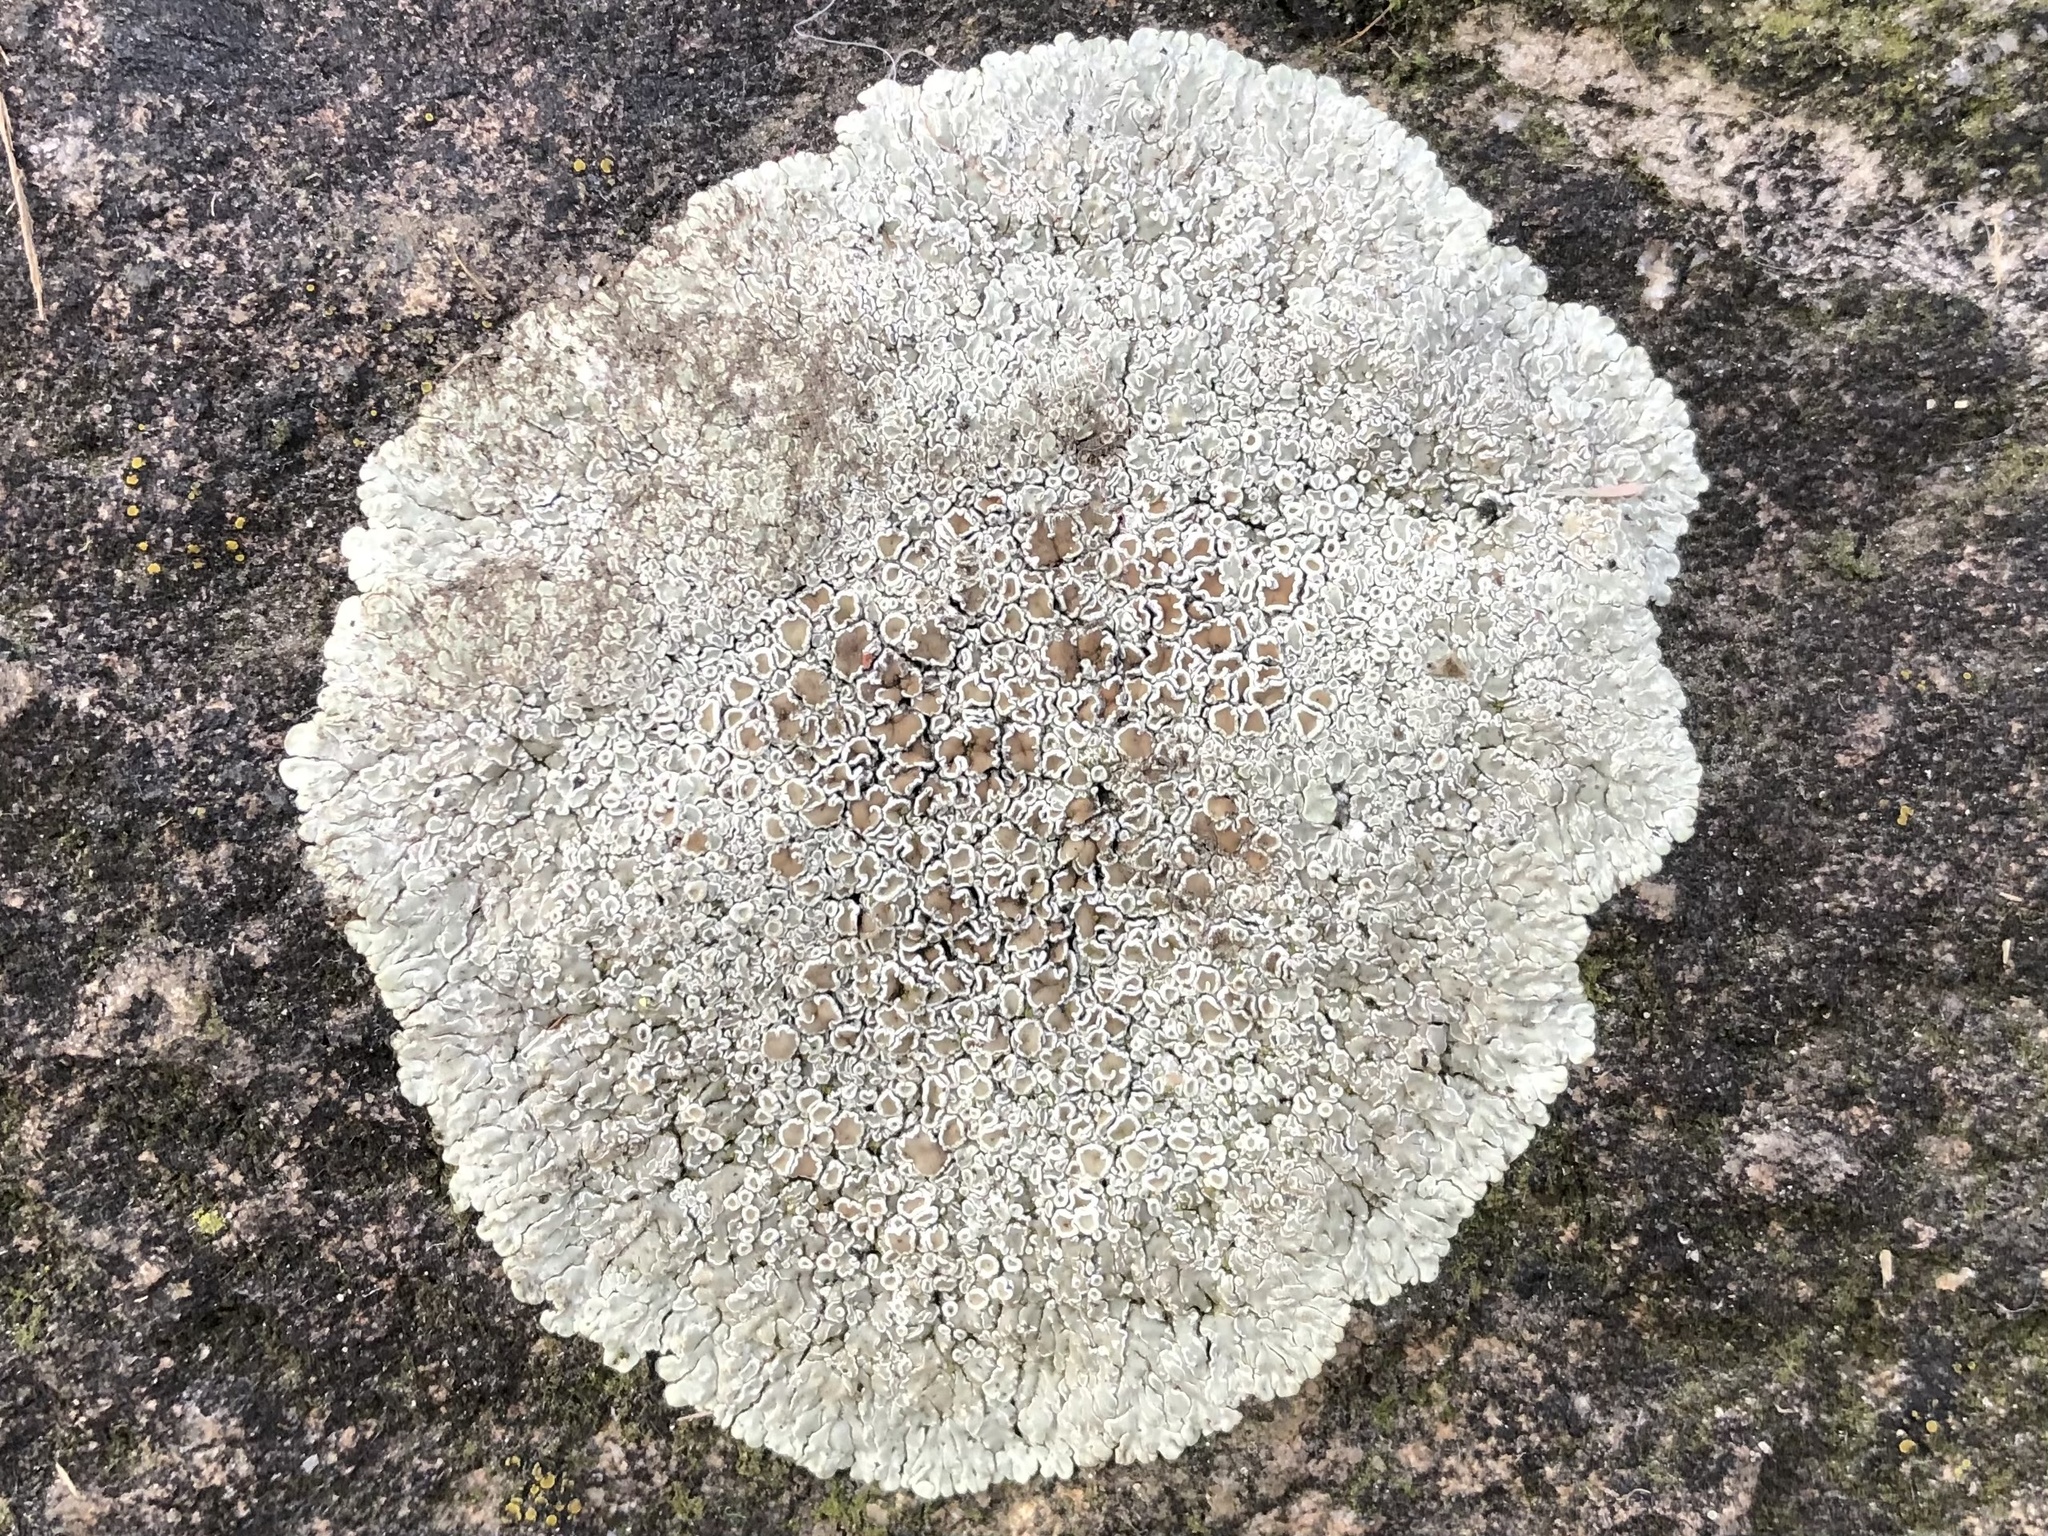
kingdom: Fungi
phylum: Ascomycota
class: Lecanoromycetes
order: Lecanorales
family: Lecanoraceae
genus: Protoparmeliopsis
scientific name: Protoparmeliopsis muralis
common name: Stonewall rim lichen
